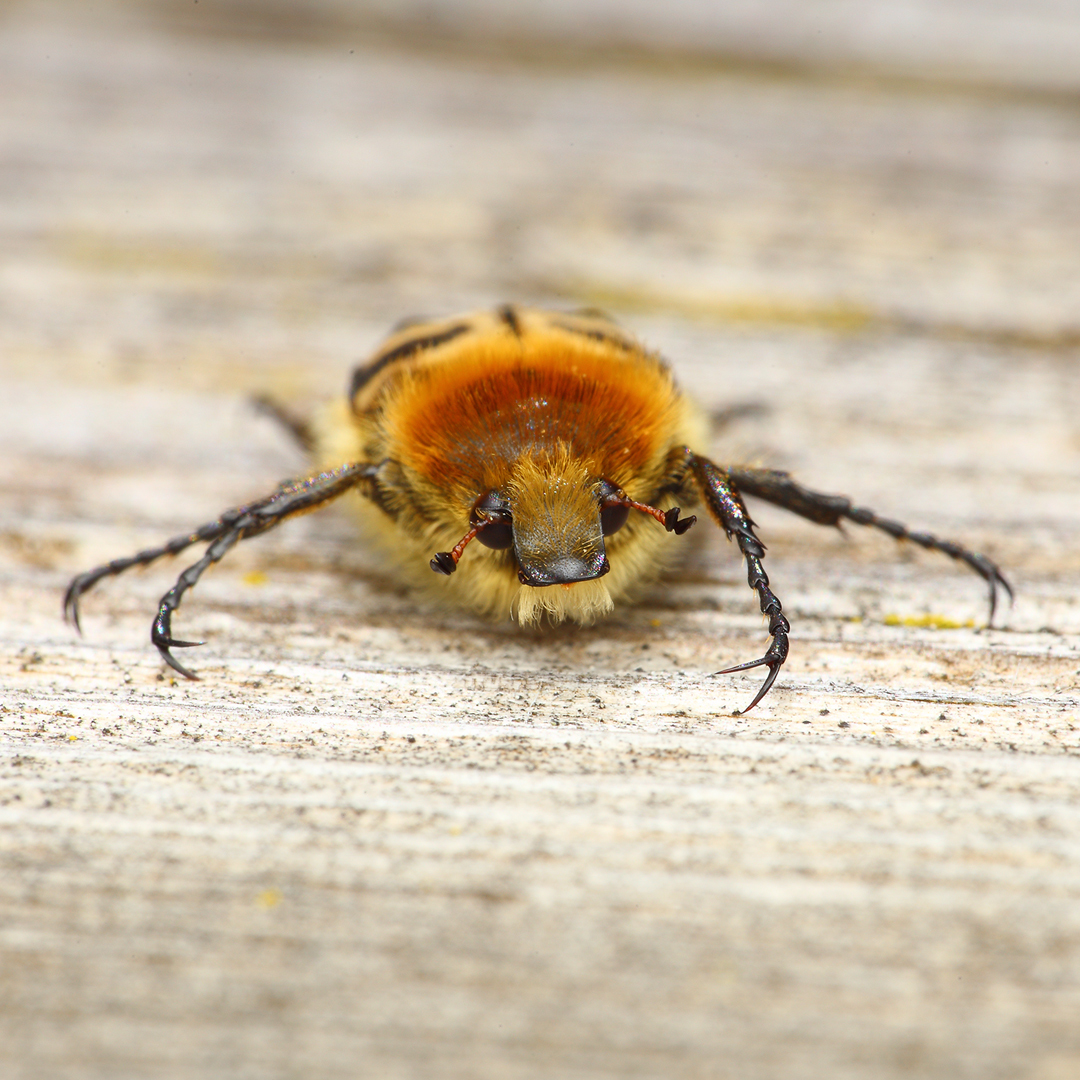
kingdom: Animalia
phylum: Arthropoda
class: Insecta
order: Coleoptera
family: Scarabaeidae
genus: Trichius
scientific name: Trichius fasciatus
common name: Bee beetle
